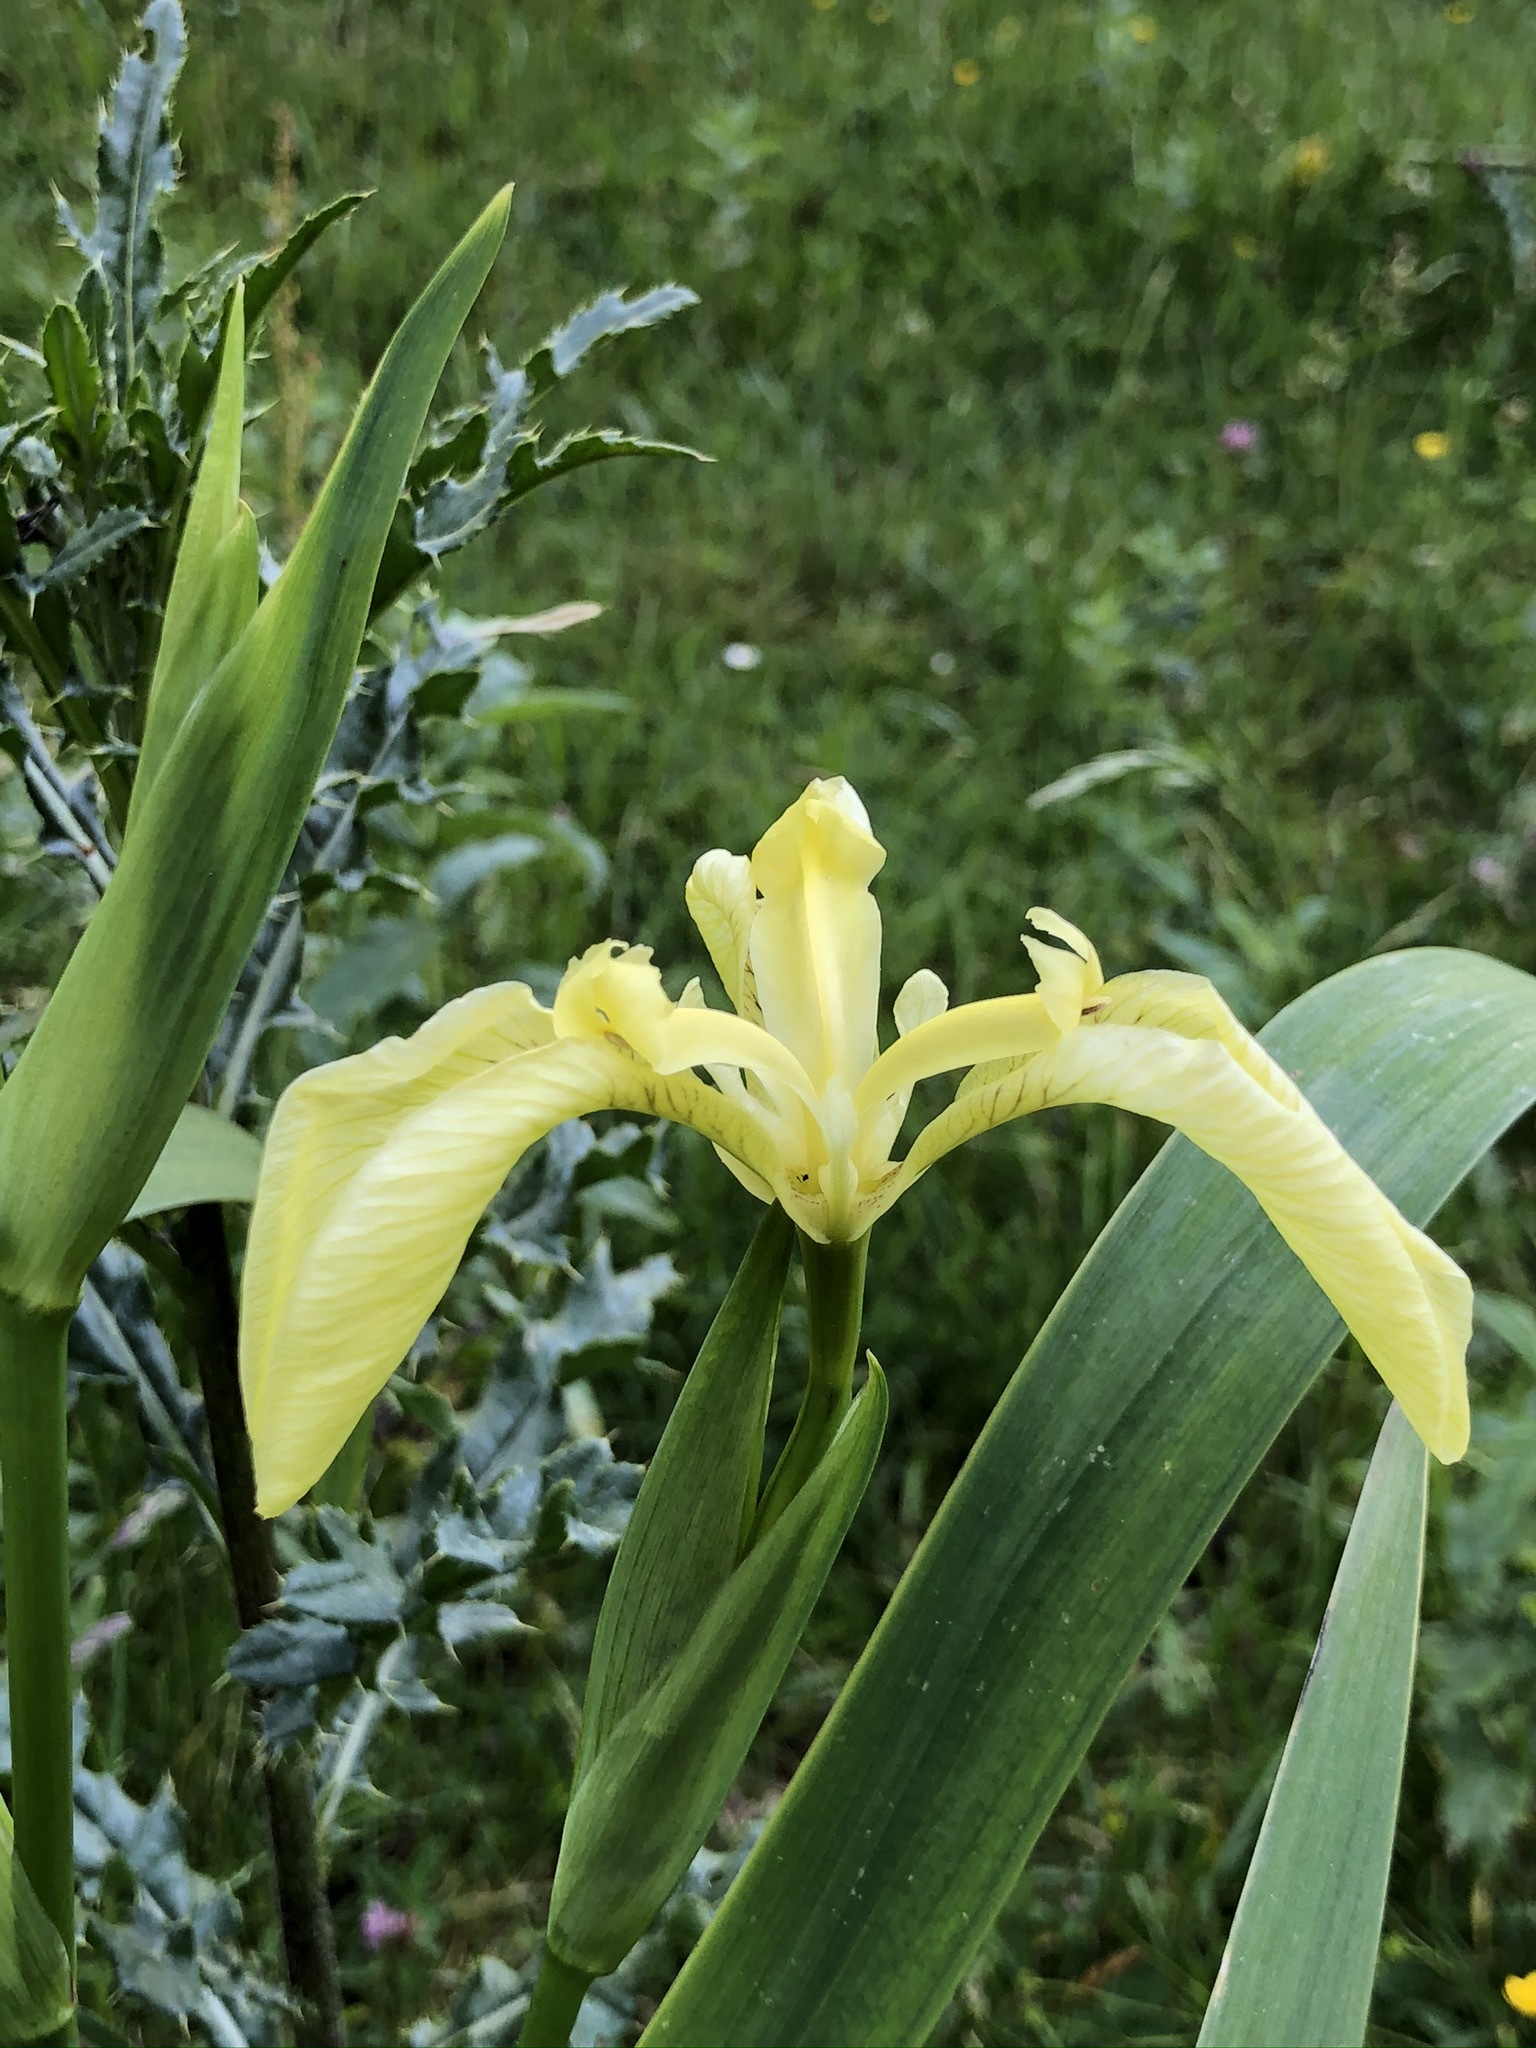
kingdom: Plantae
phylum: Tracheophyta
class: Liliopsida
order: Asparagales
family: Iridaceae
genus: Iris
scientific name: Iris pseudacorus
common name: Yellow flag
